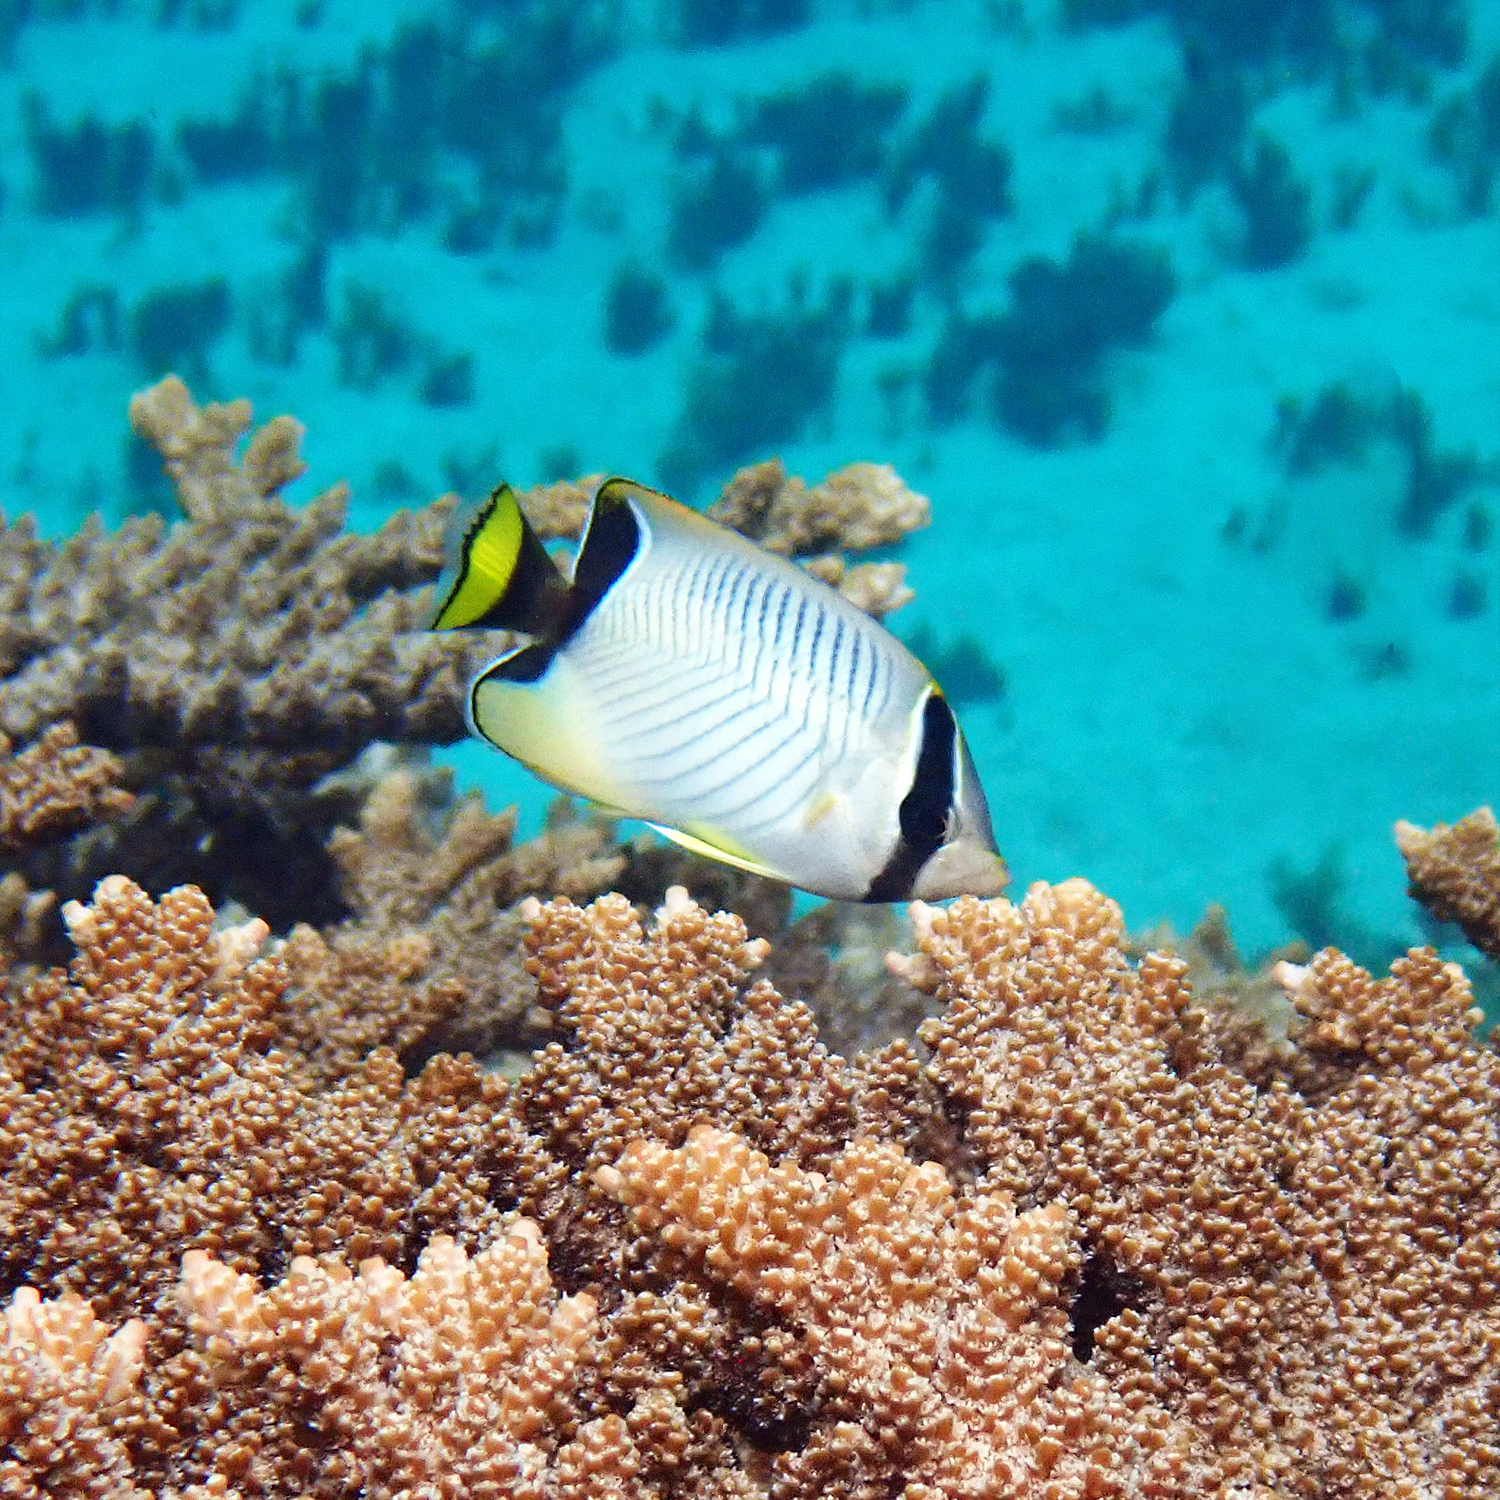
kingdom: Animalia
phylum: Chordata
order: Perciformes
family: Chaetodontidae
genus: Chaetodon
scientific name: Chaetodon trifascialis
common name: Chevroned butterflyfish
